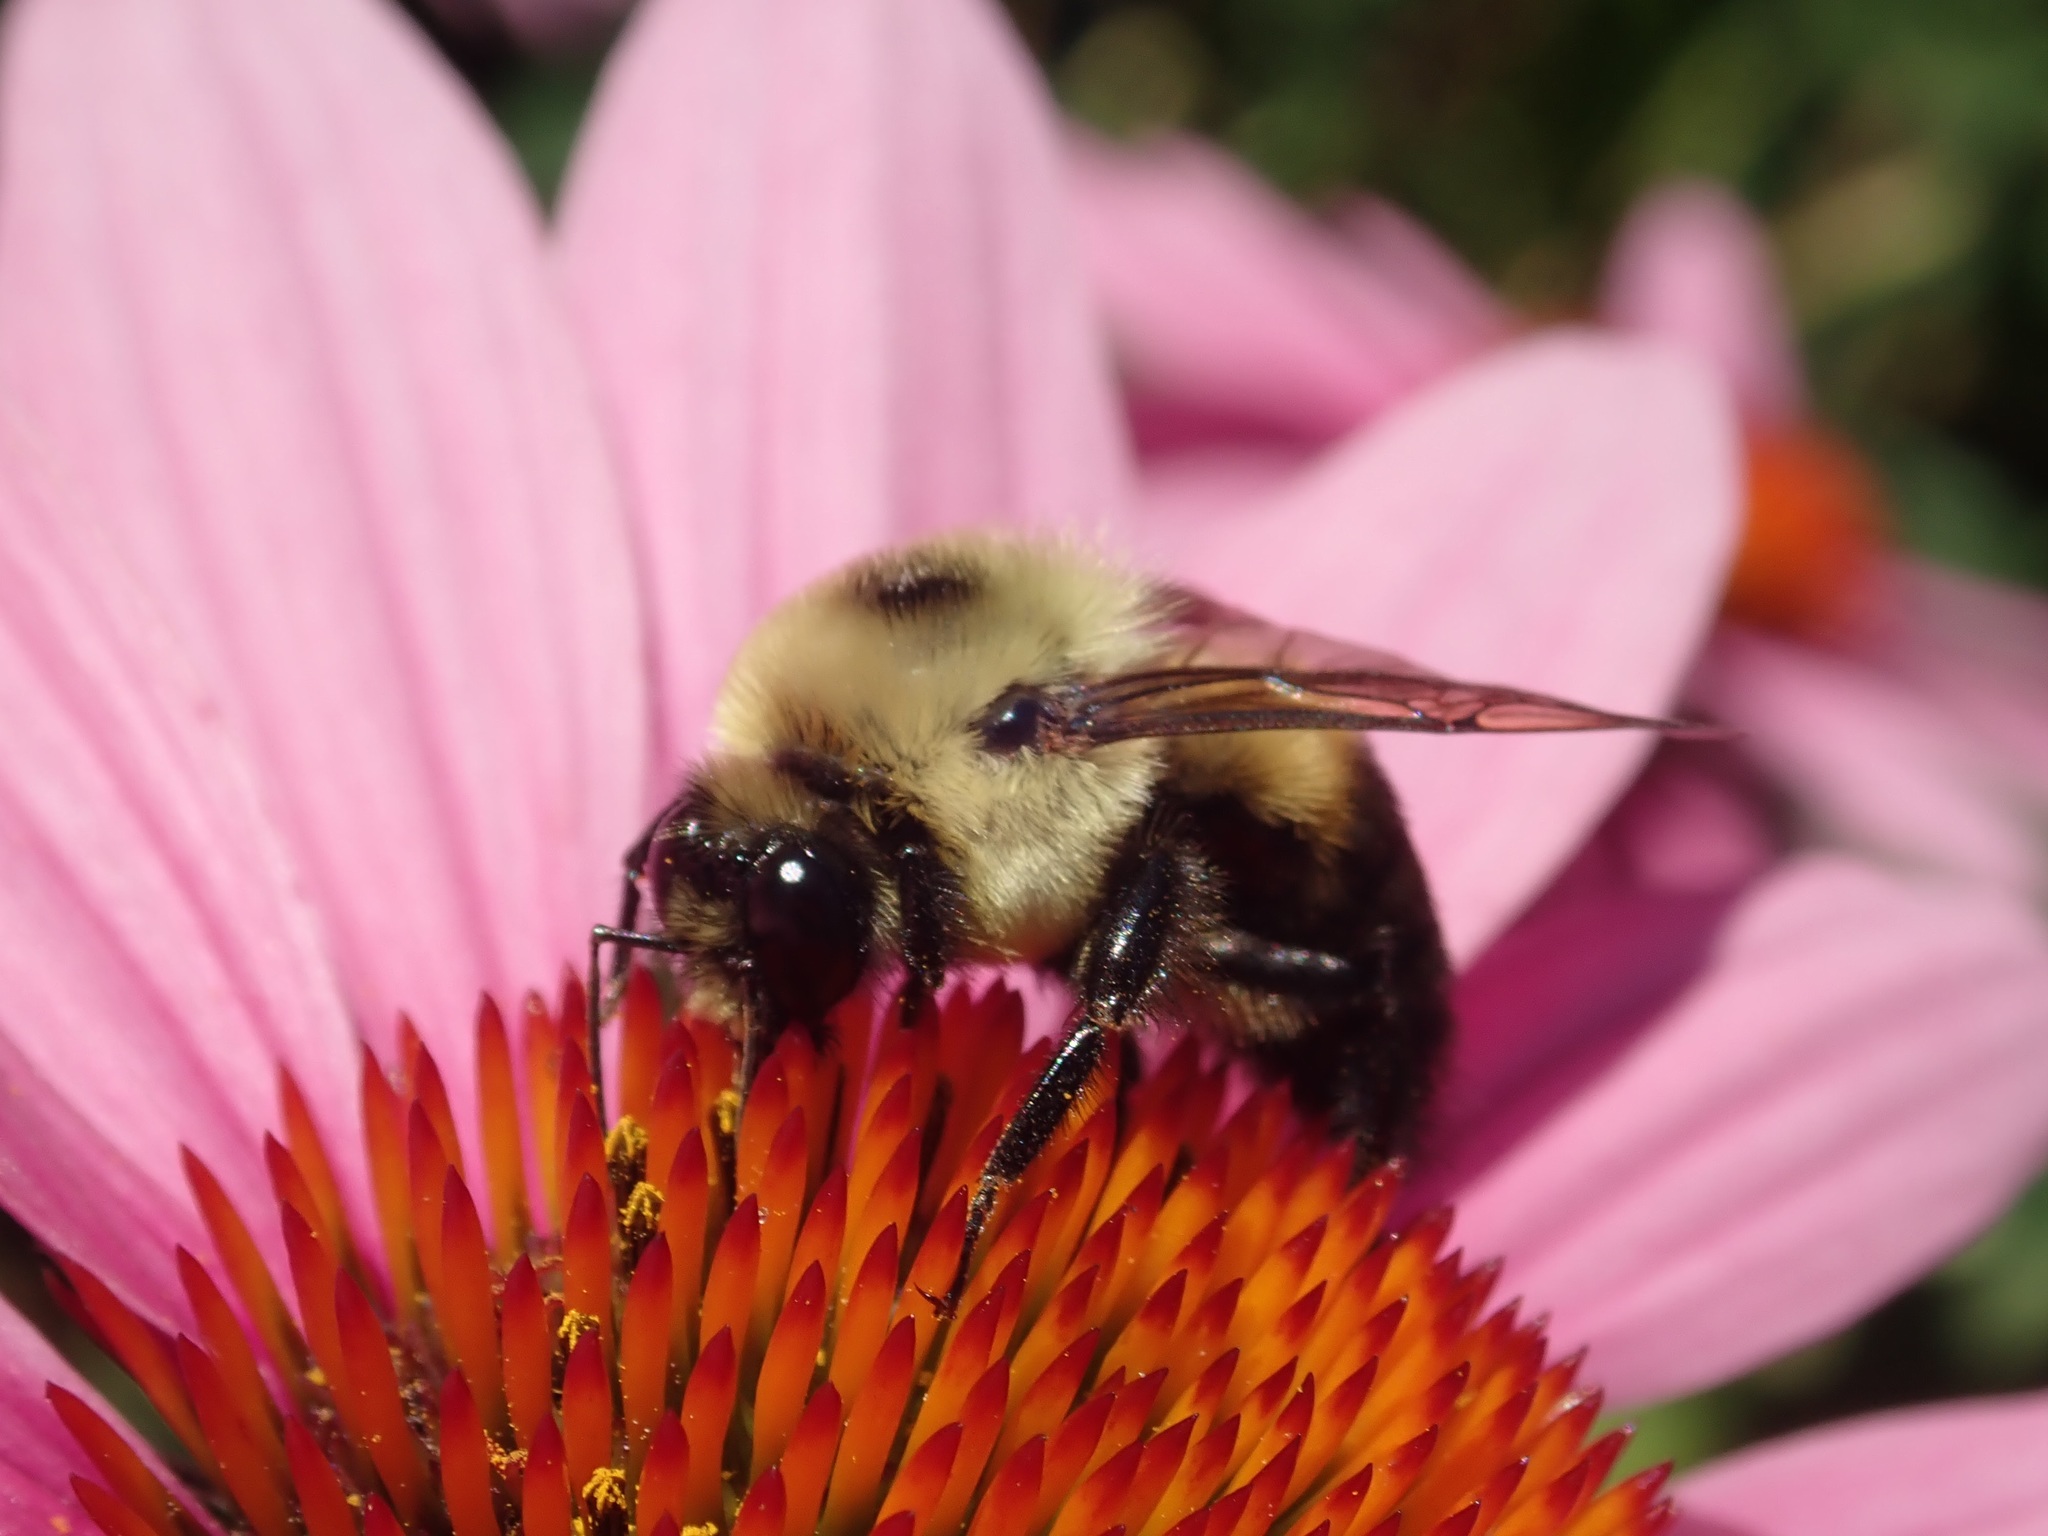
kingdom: Animalia
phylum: Arthropoda
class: Insecta
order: Hymenoptera
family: Apidae
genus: Bombus
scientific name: Bombus griseocollis
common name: Brown-belted bumble bee
